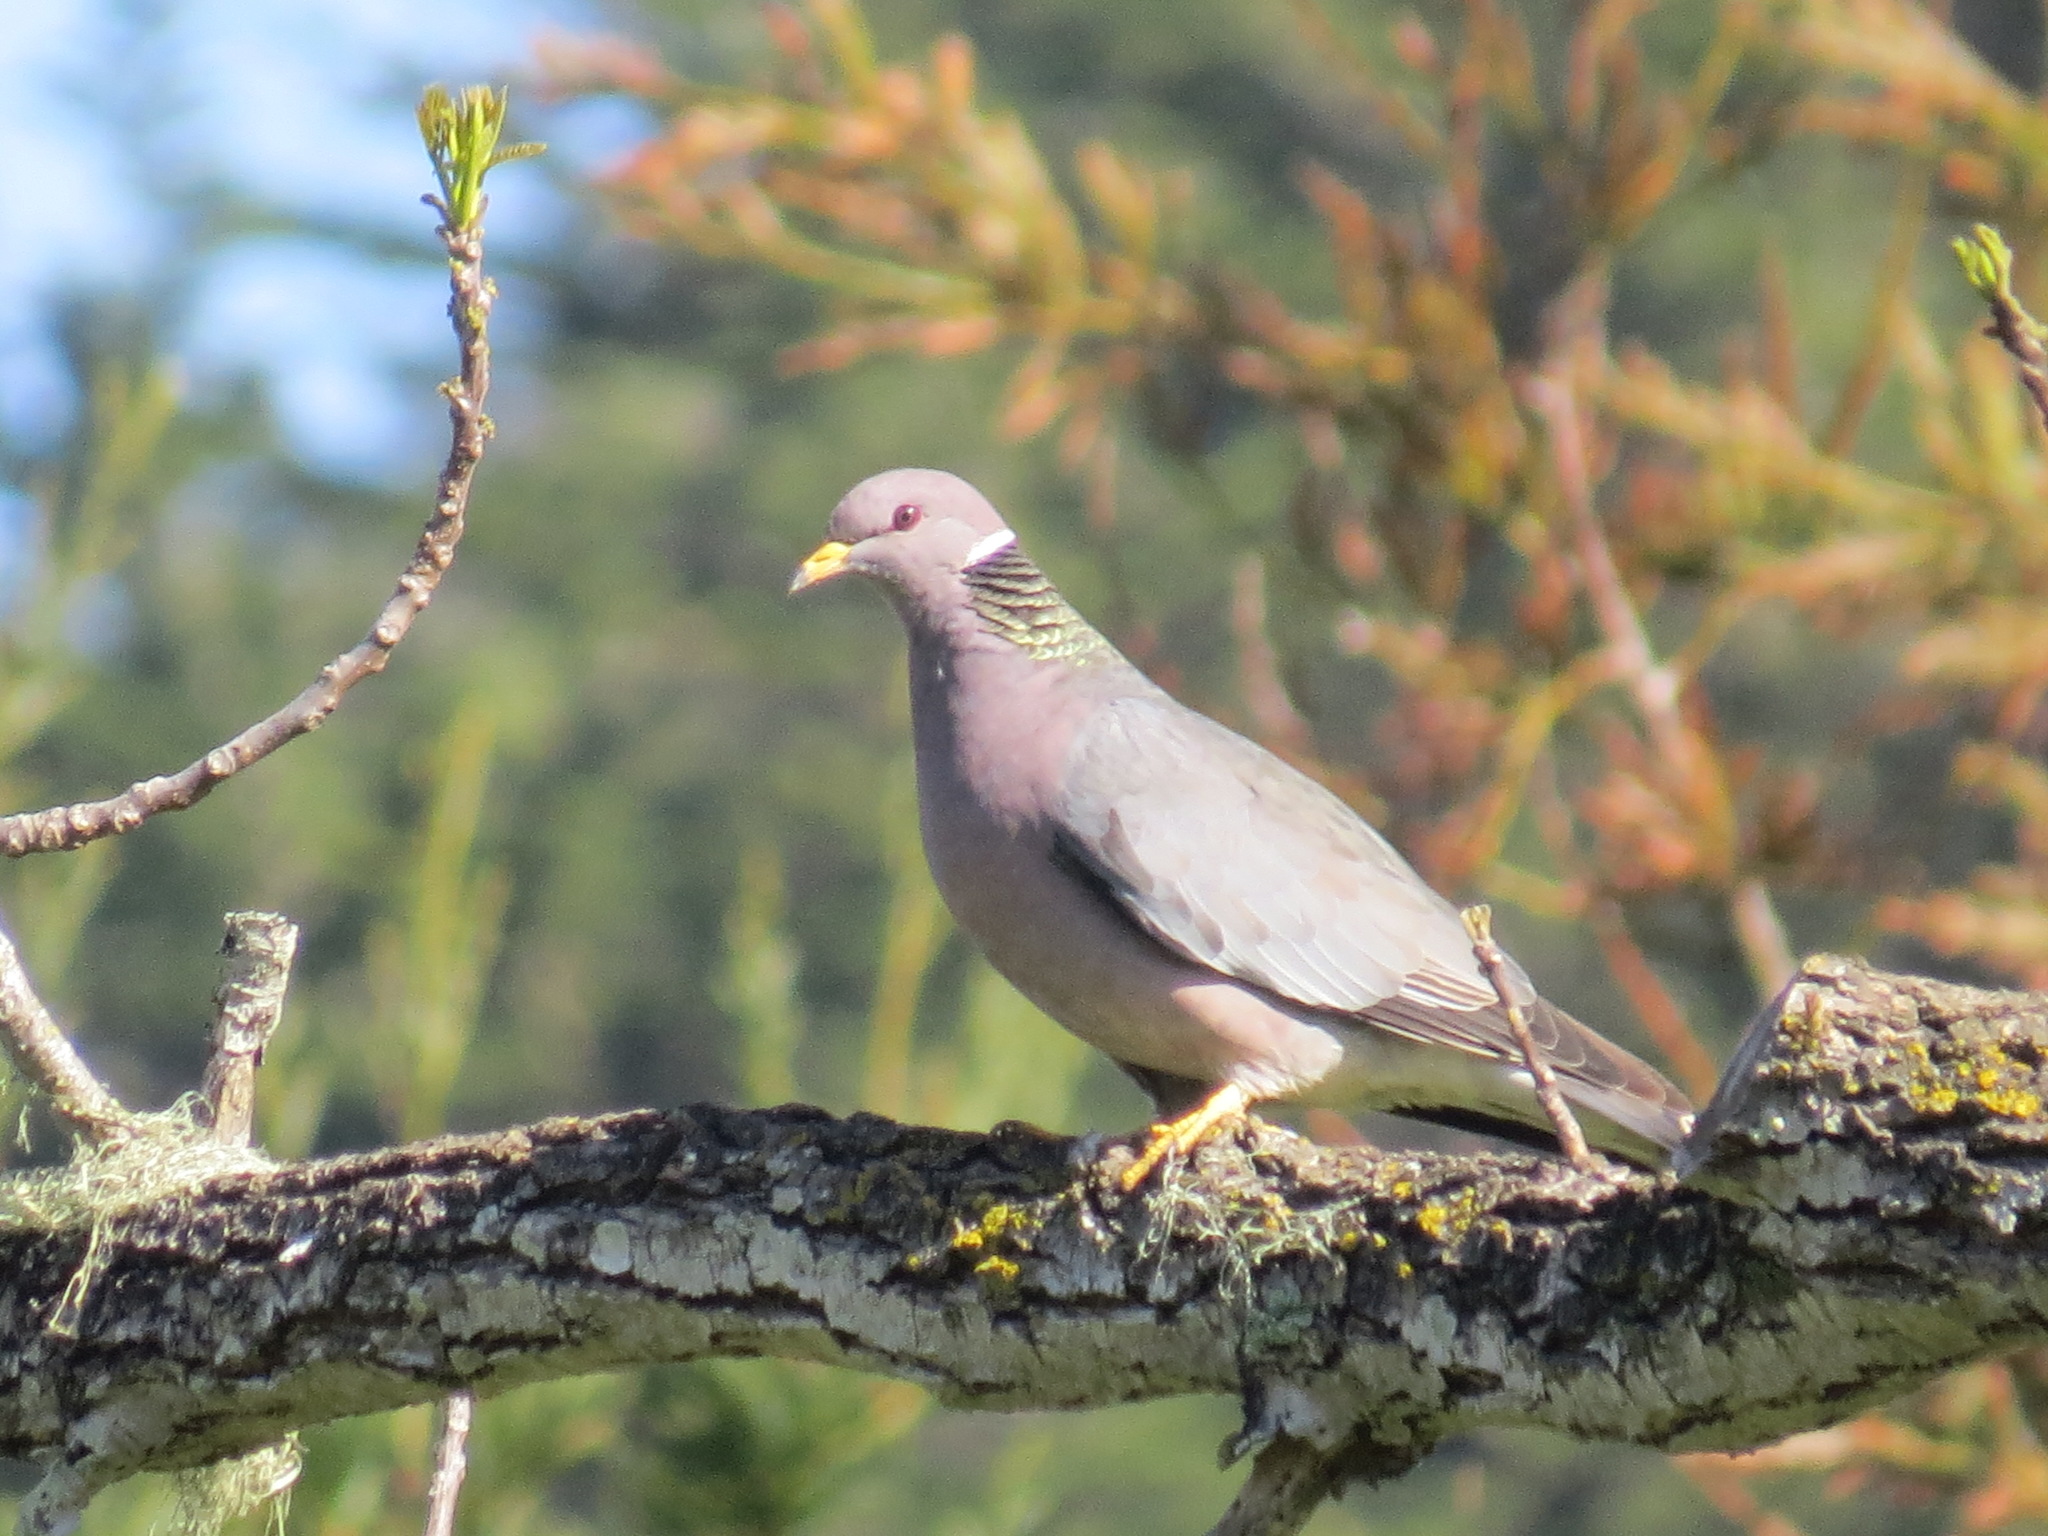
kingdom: Animalia
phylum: Chordata
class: Aves
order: Columbiformes
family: Columbidae
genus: Patagioenas
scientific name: Patagioenas fasciata
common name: Band-tailed pigeon
